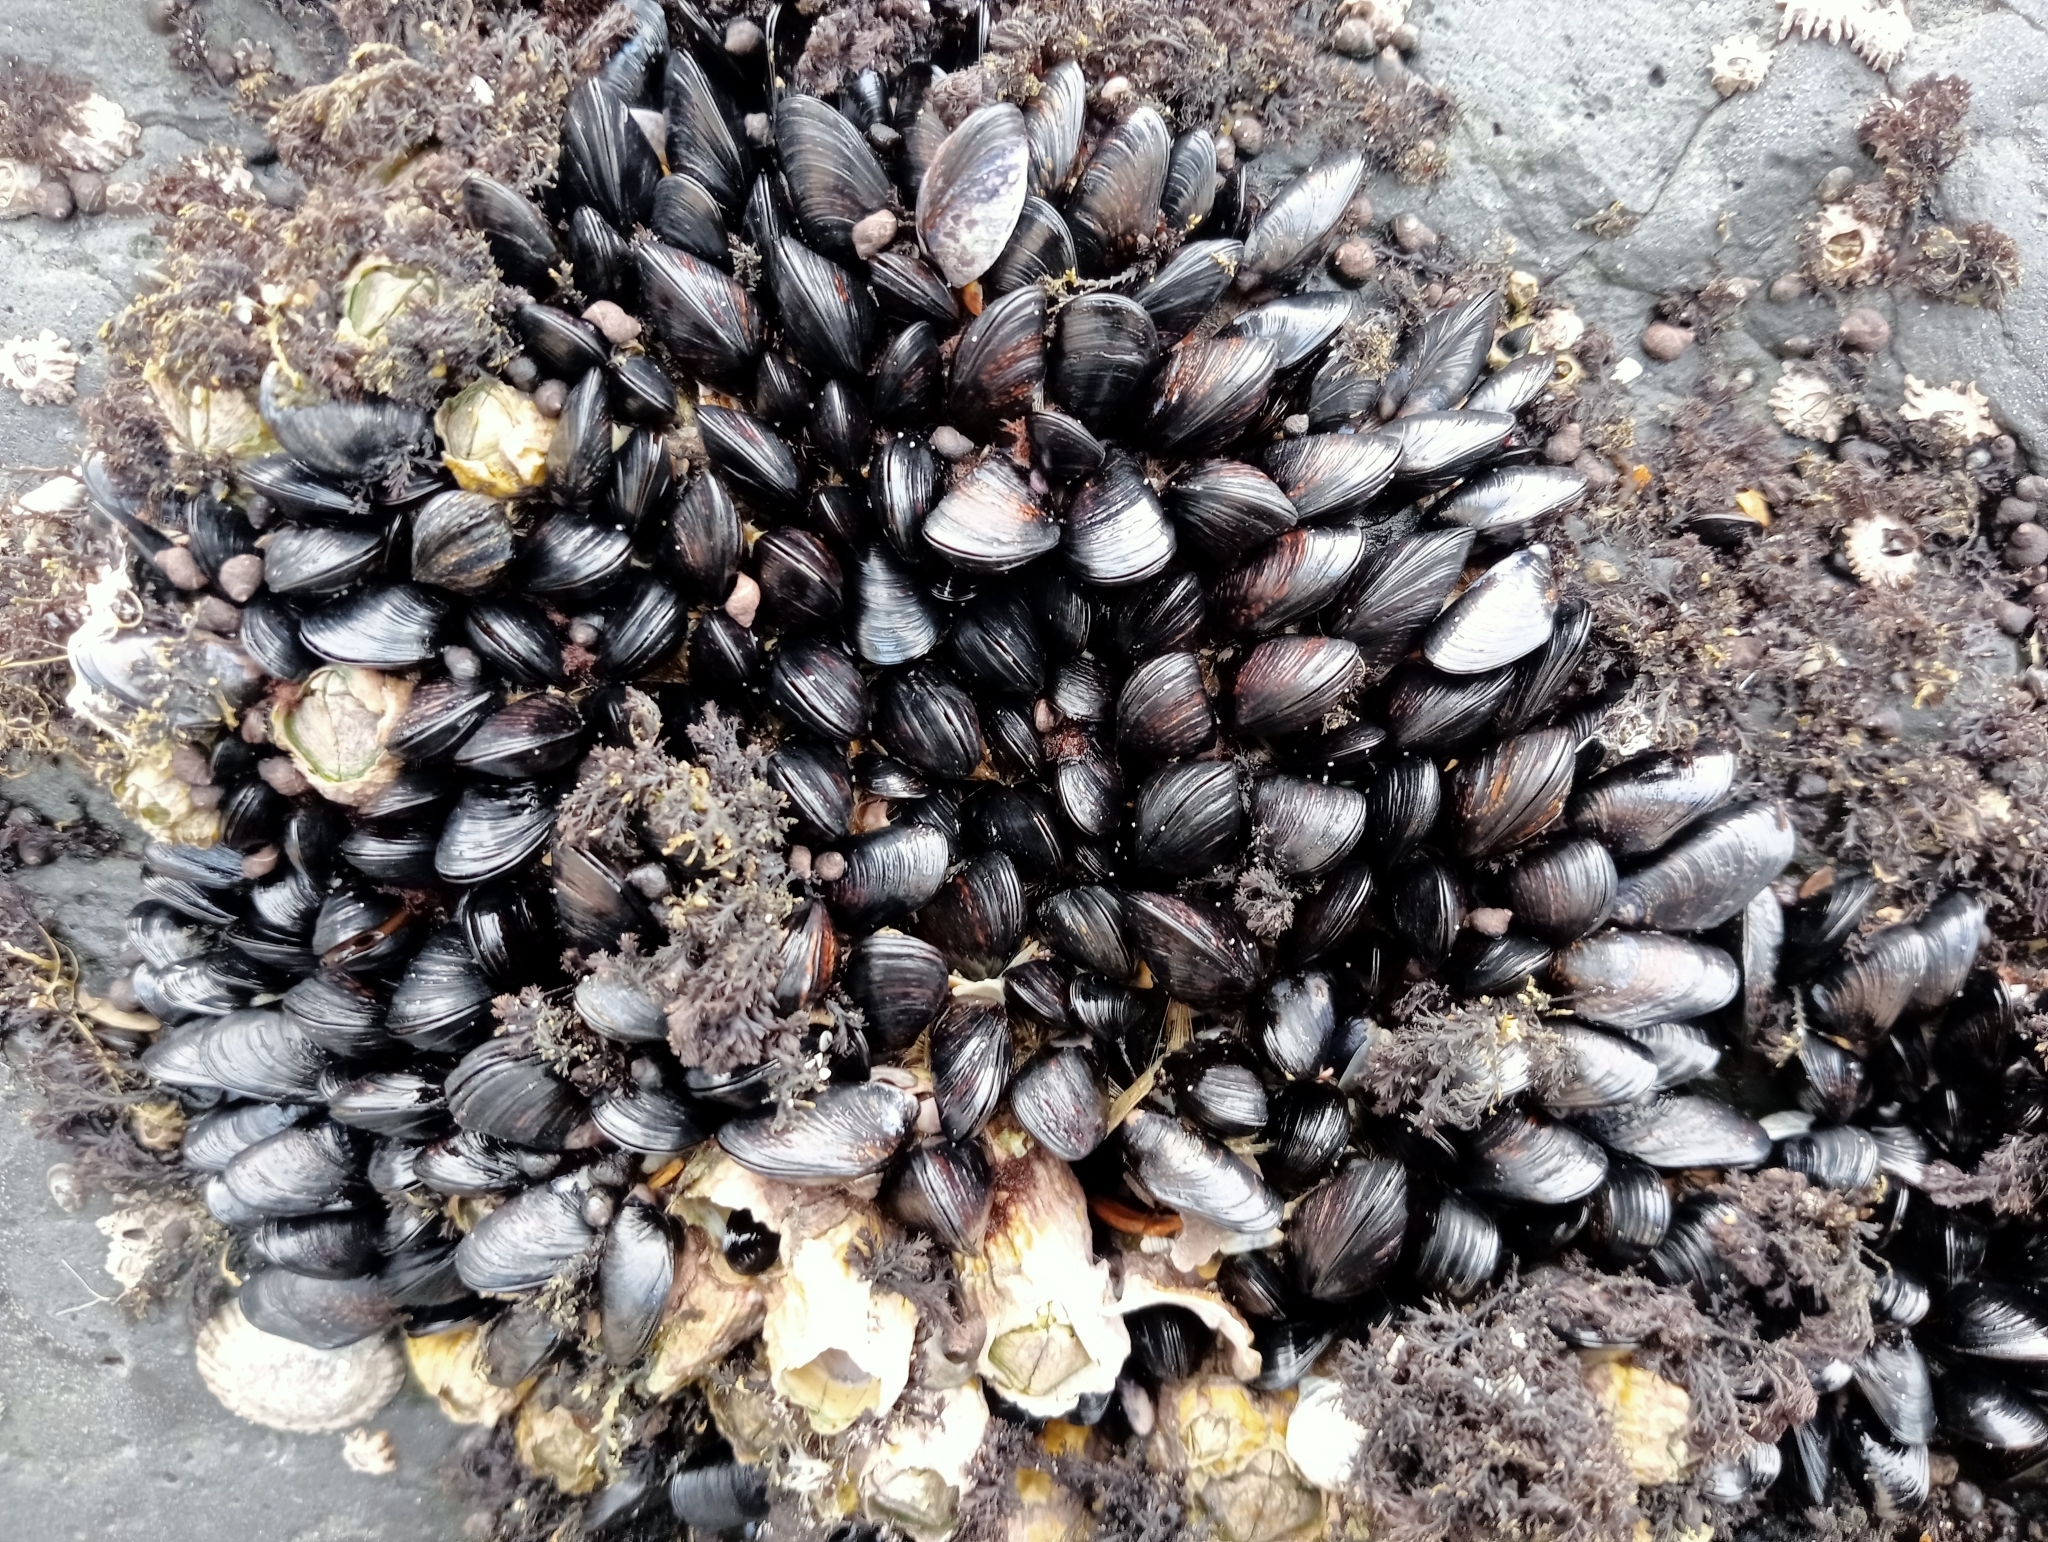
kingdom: Animalia
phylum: Mollusca
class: Bivalvia
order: Mytilida
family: Mytilidae
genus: Xenostrobus
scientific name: Xenostrobus neozelanicus
